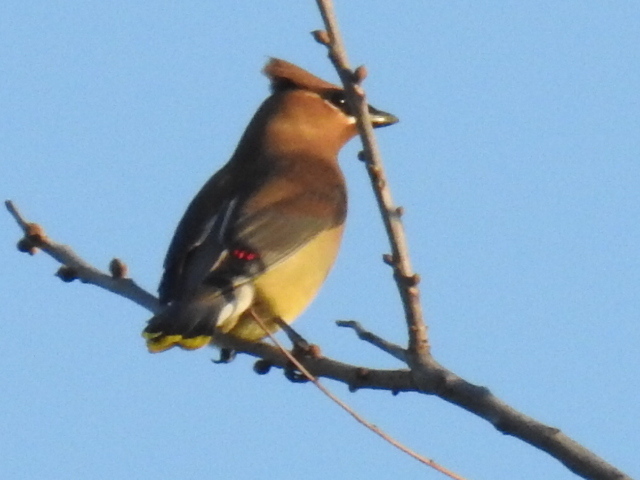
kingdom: Animalia
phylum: Chordata
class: Aves
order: Passeriformes
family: Bombycillidae
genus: Bombycilla
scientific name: Bombycilla cedrorum
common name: Cedar waxwing
